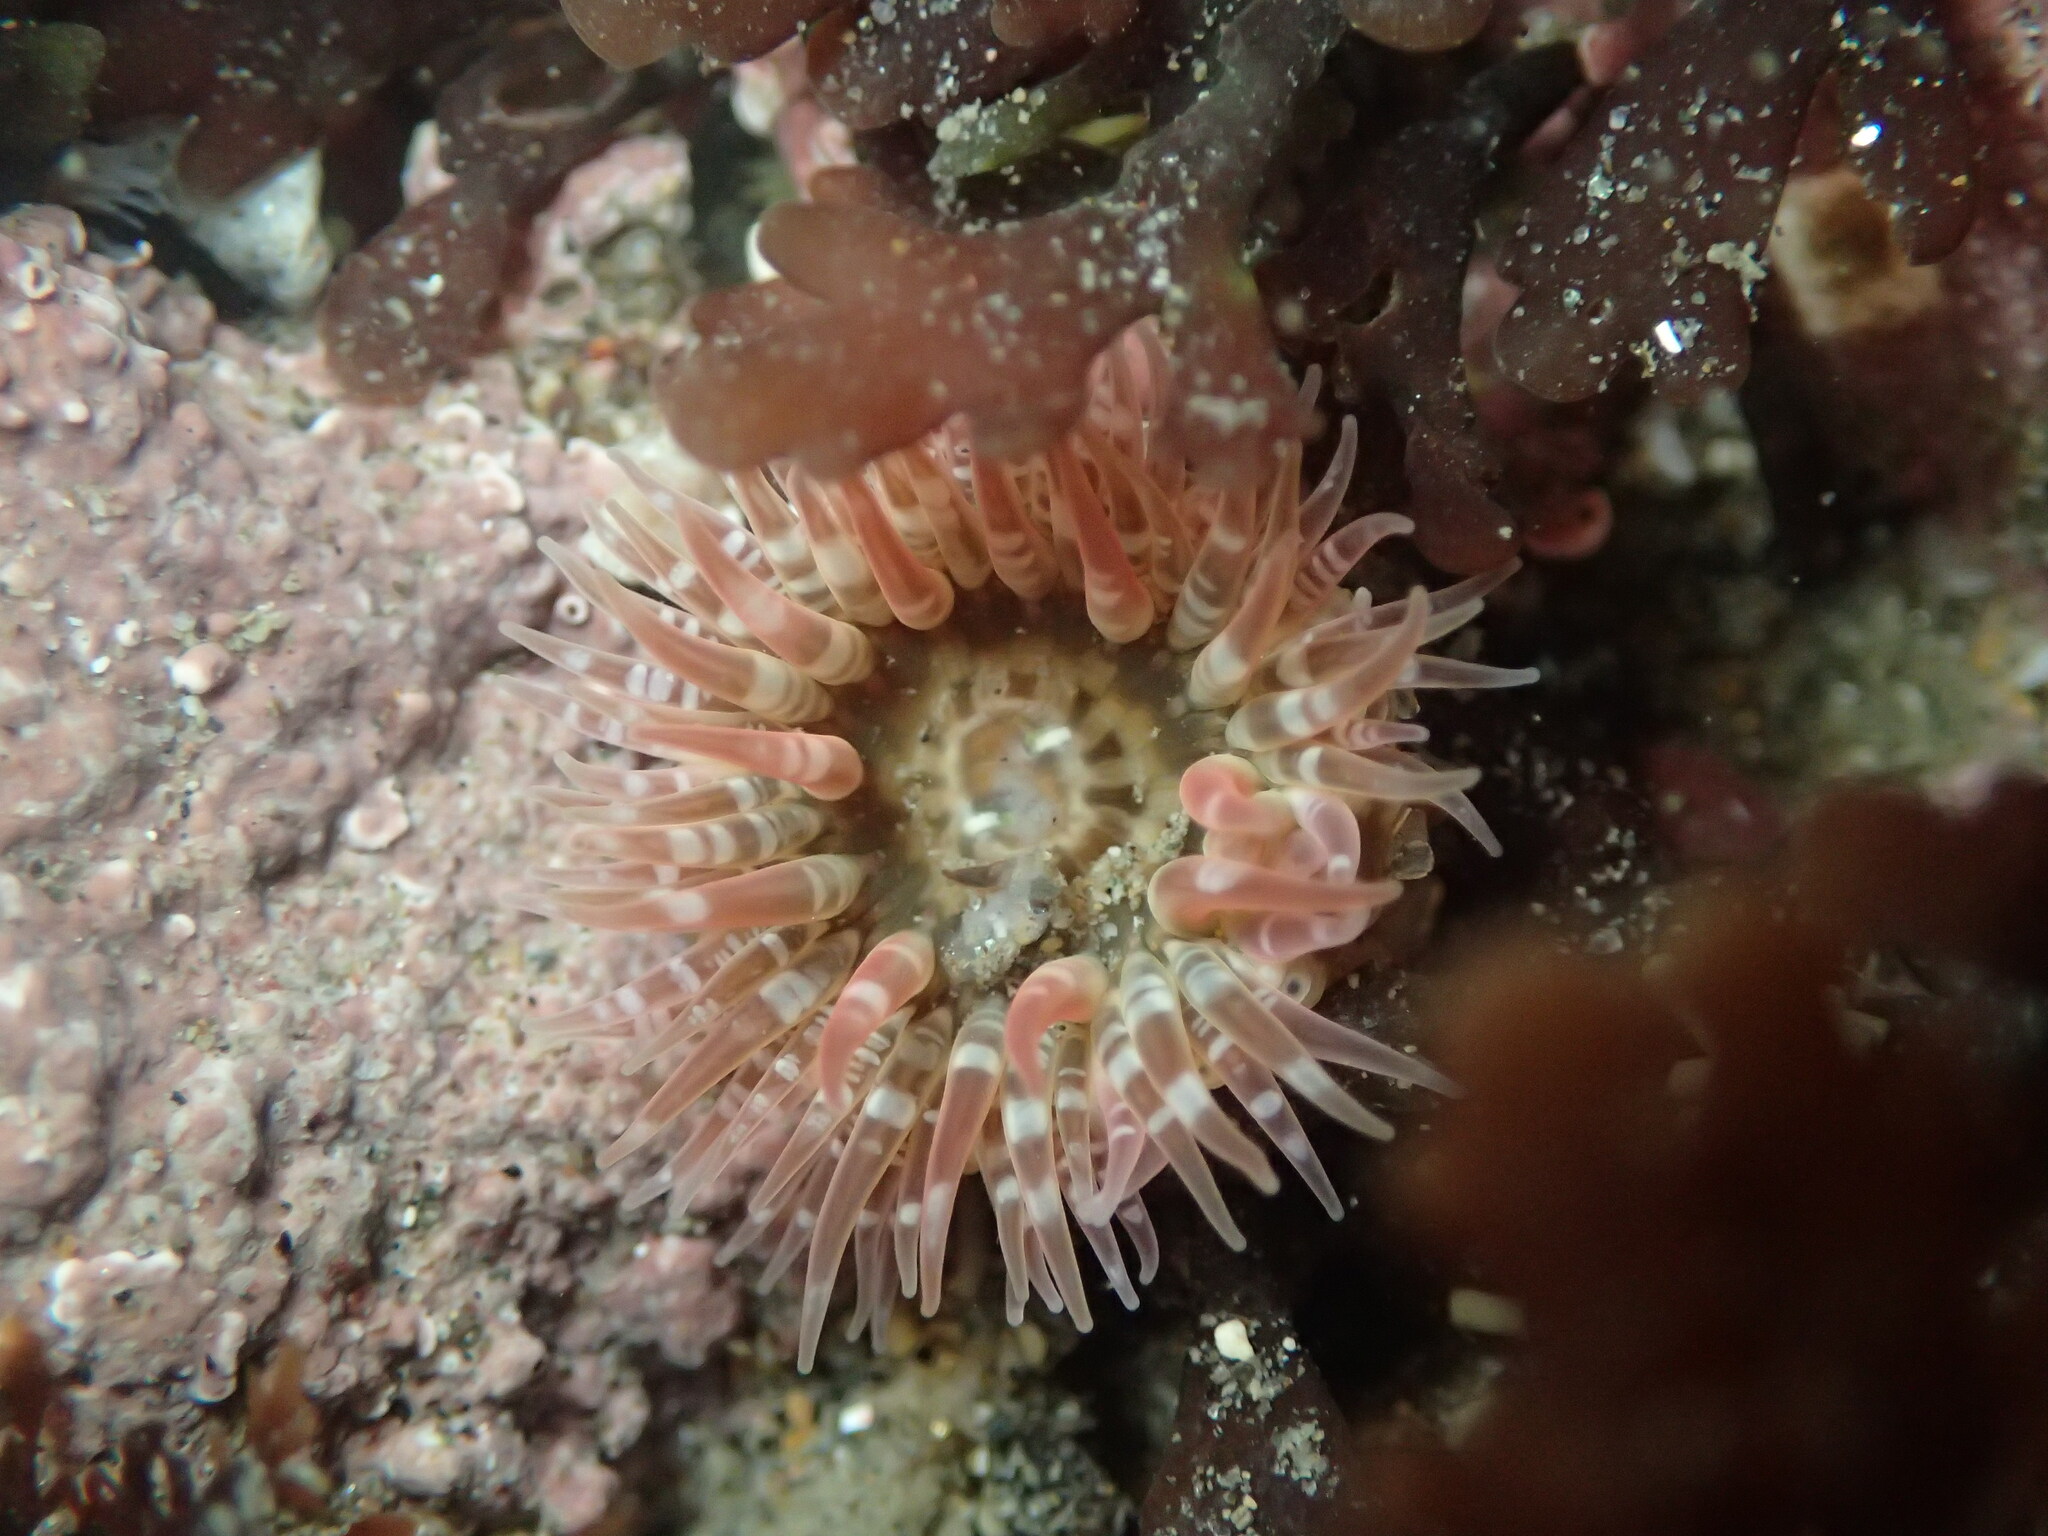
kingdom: Animalia
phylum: Cnidaria
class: Anthozoa
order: Actiniaria
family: Actiniidae
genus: Anthopleura
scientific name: Anthopleura artemisia
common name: Buried sea anemone
